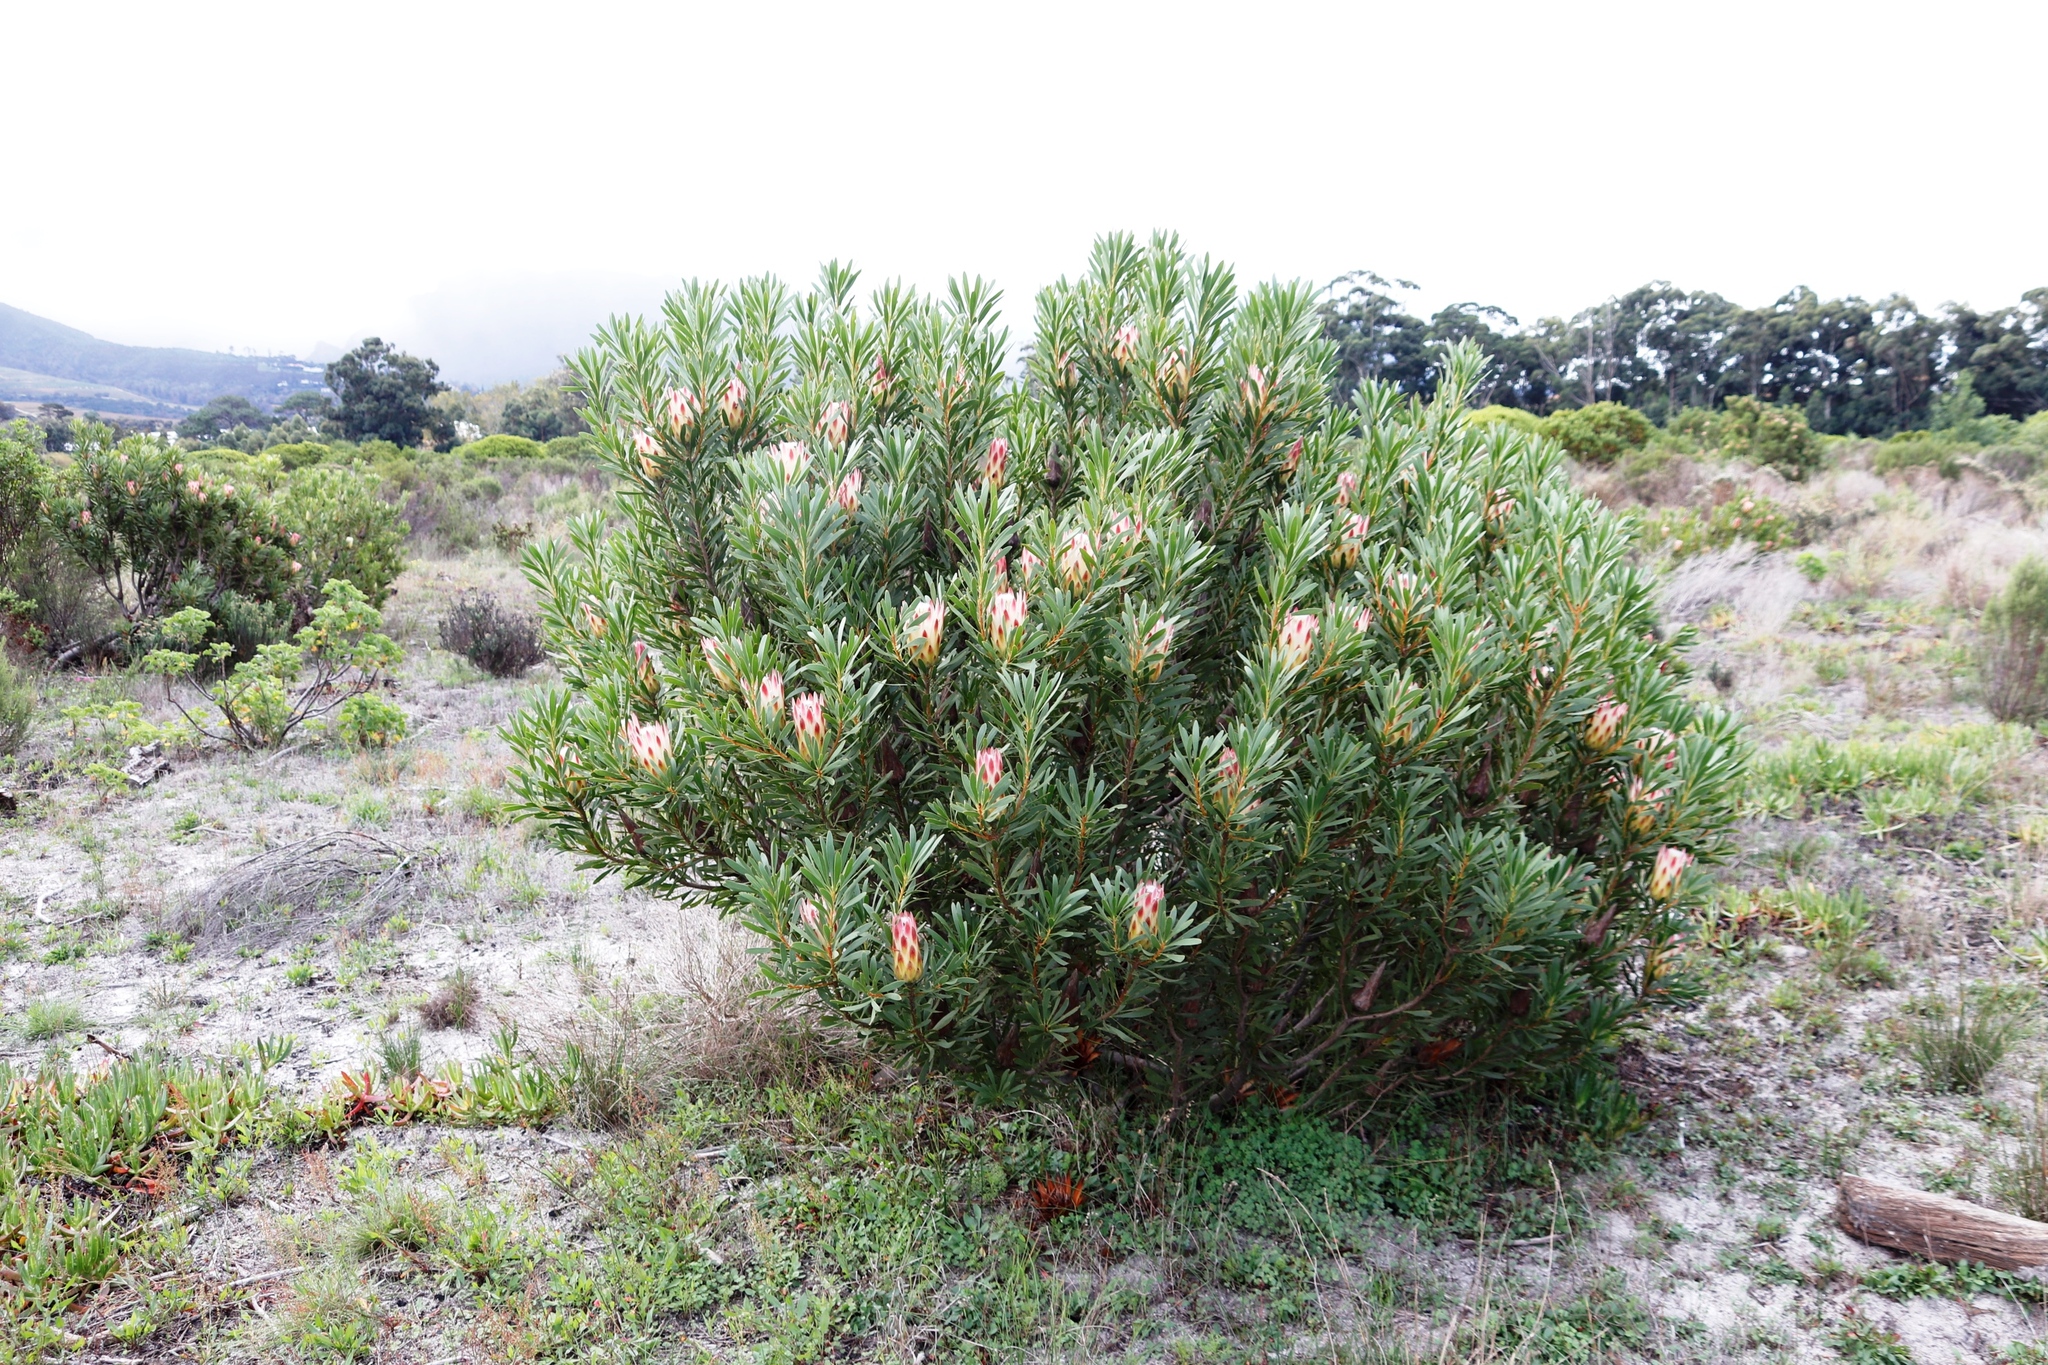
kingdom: Plantae
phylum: Tracheophyta
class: Magnoliopsida
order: Proteales
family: Proteaceae
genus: Protea
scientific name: Protea repens
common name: Sugarbush
